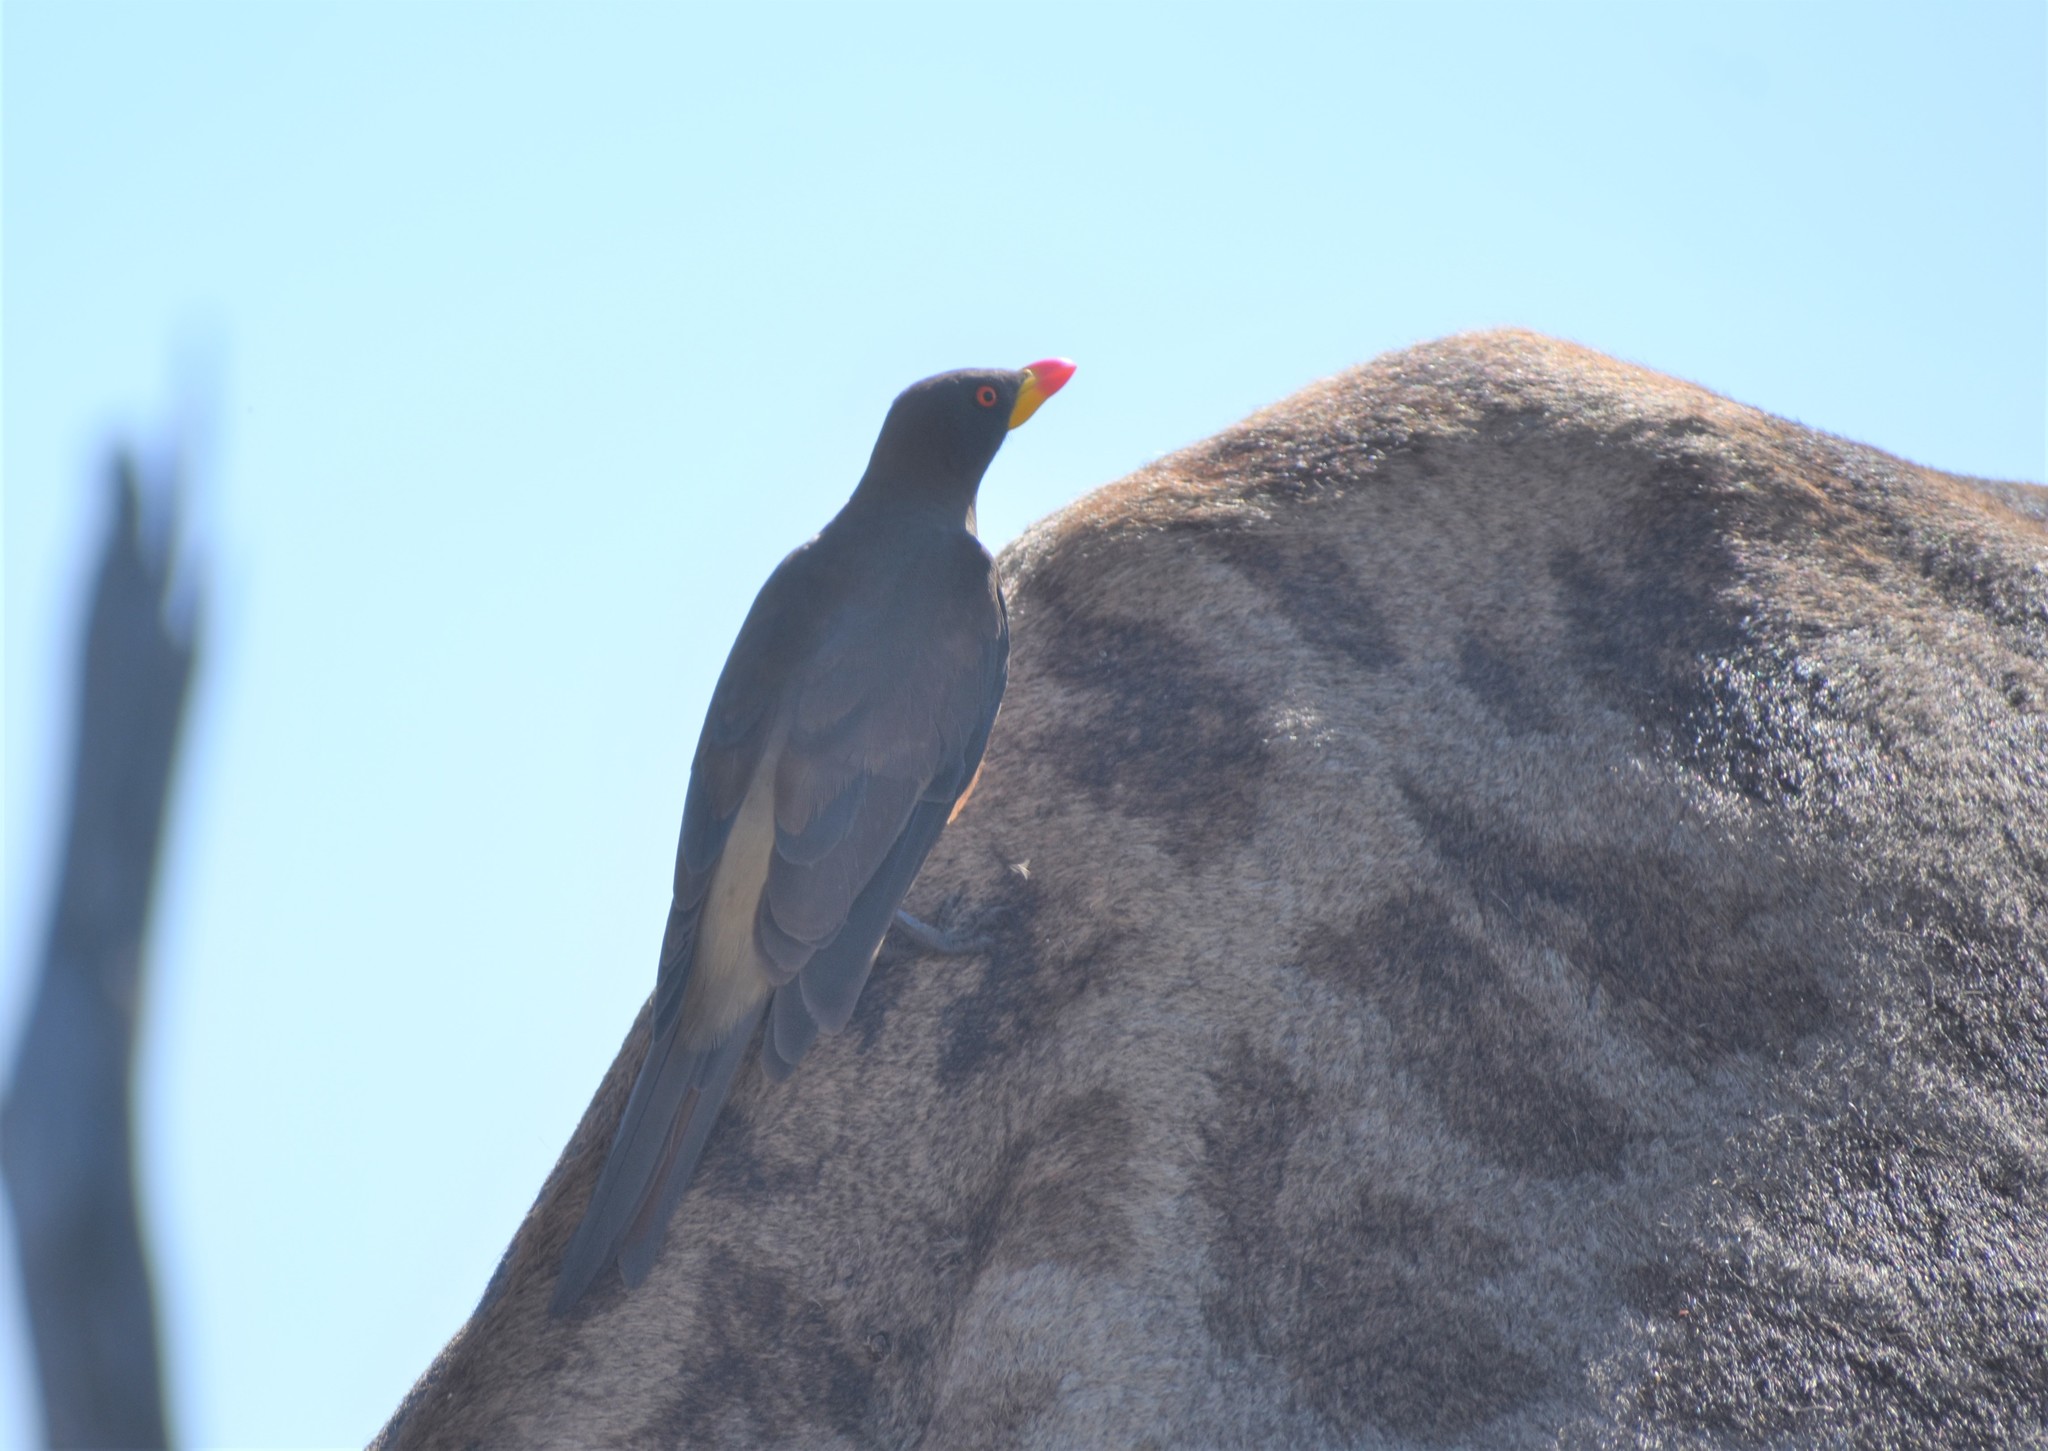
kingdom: Animalia
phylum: Chordata
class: Aves
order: Passeriformes
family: Buphagidae
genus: Buphagus
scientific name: Buphagus africanus
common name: Yellow-billed oxpecker
